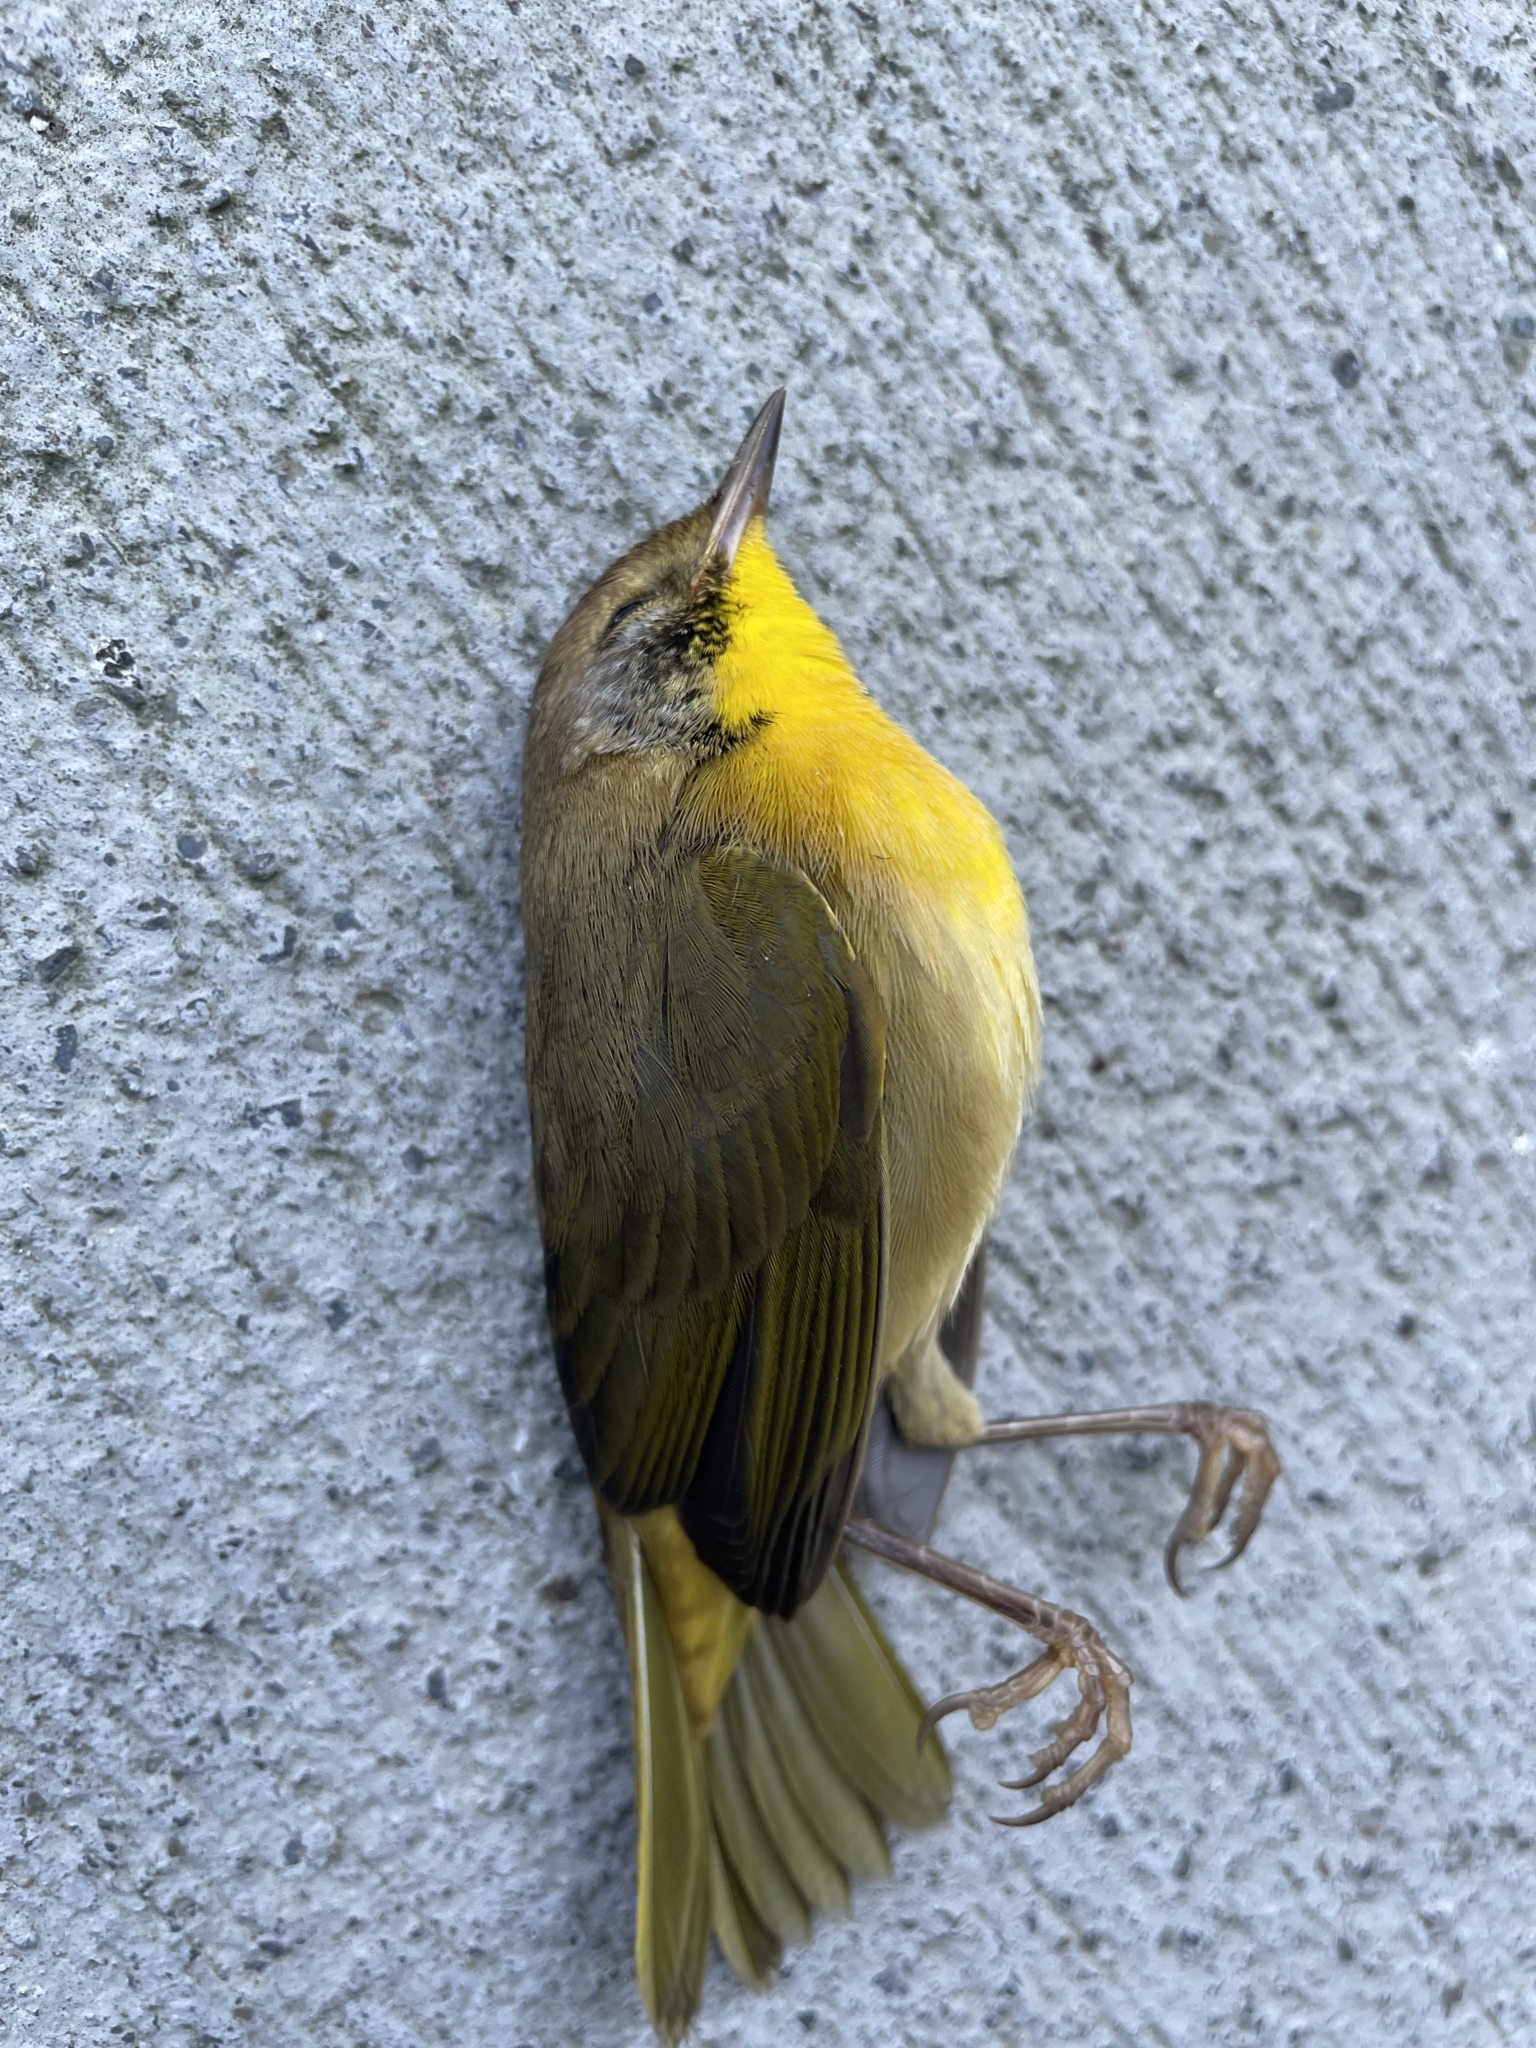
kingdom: Animalia
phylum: Chordata
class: Aves
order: Passeriformes
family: Parulidae
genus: Geothlypis
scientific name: Geothlypis trichas
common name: Common yellowthroat
